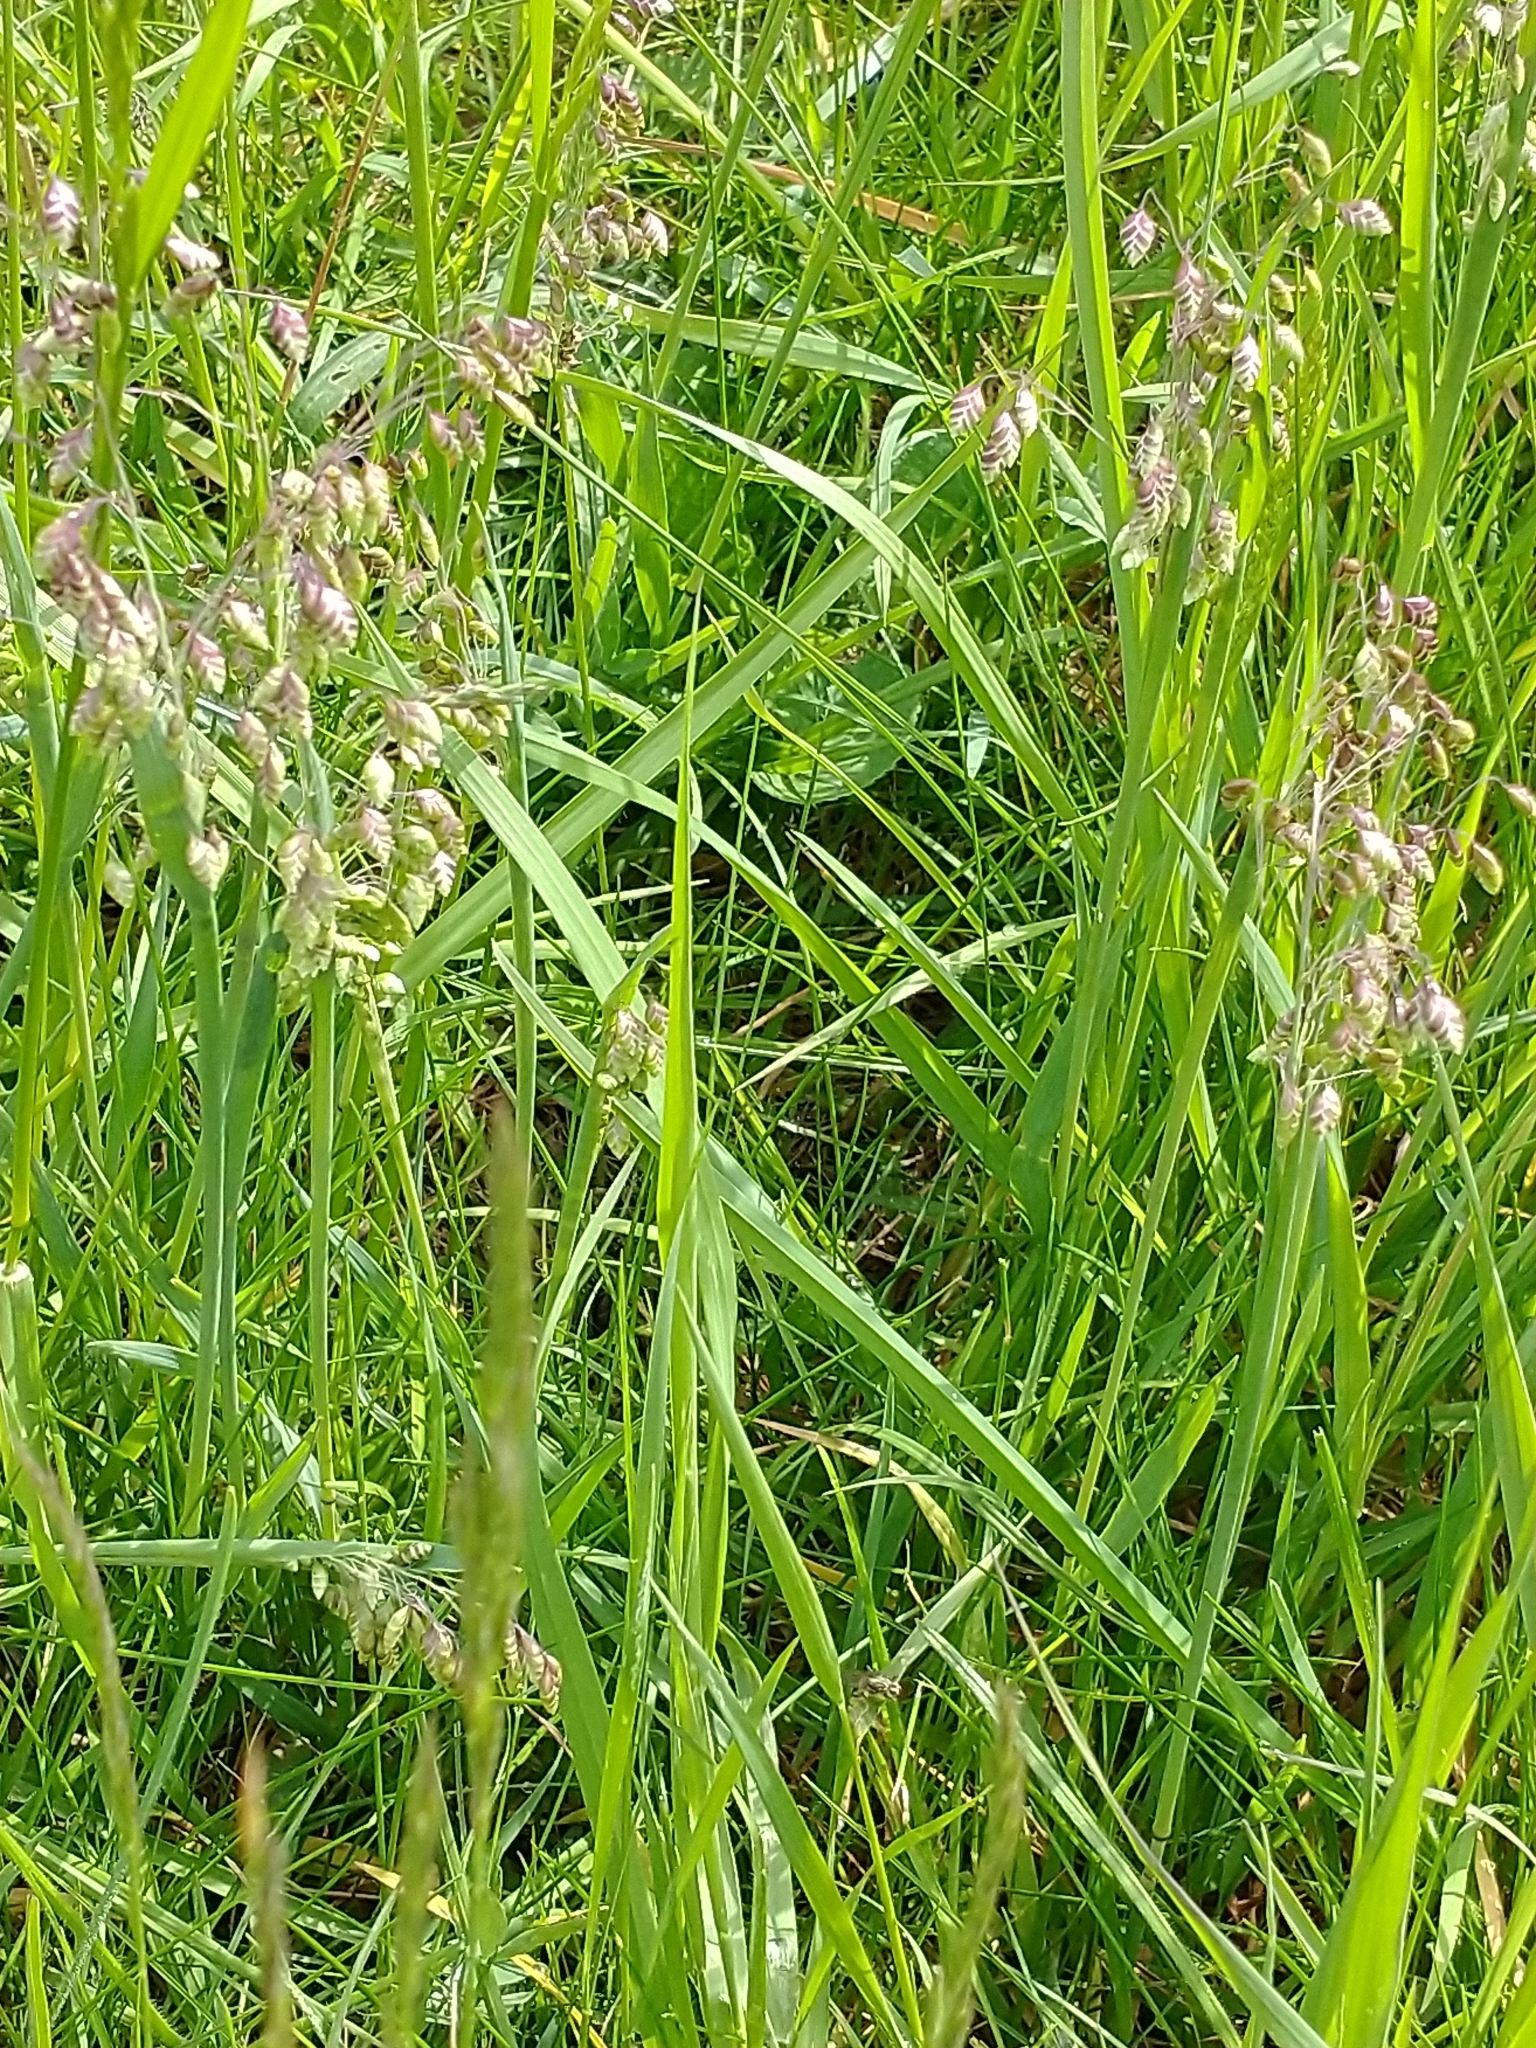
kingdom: Plantae
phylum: Tracheophyta
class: Liliopsida
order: Poales
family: Poaceae
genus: Briza
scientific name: Briza media
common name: Quaking grass
